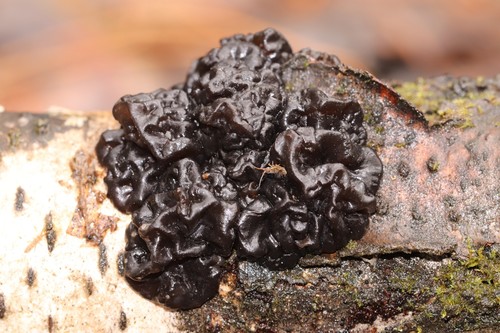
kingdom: Fungi
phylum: Basidiomycota
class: Agaricomycetes
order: Auriculariales
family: Auriculariaceae
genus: Exidia
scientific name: Exidia glandulosa
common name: Witches' butter
